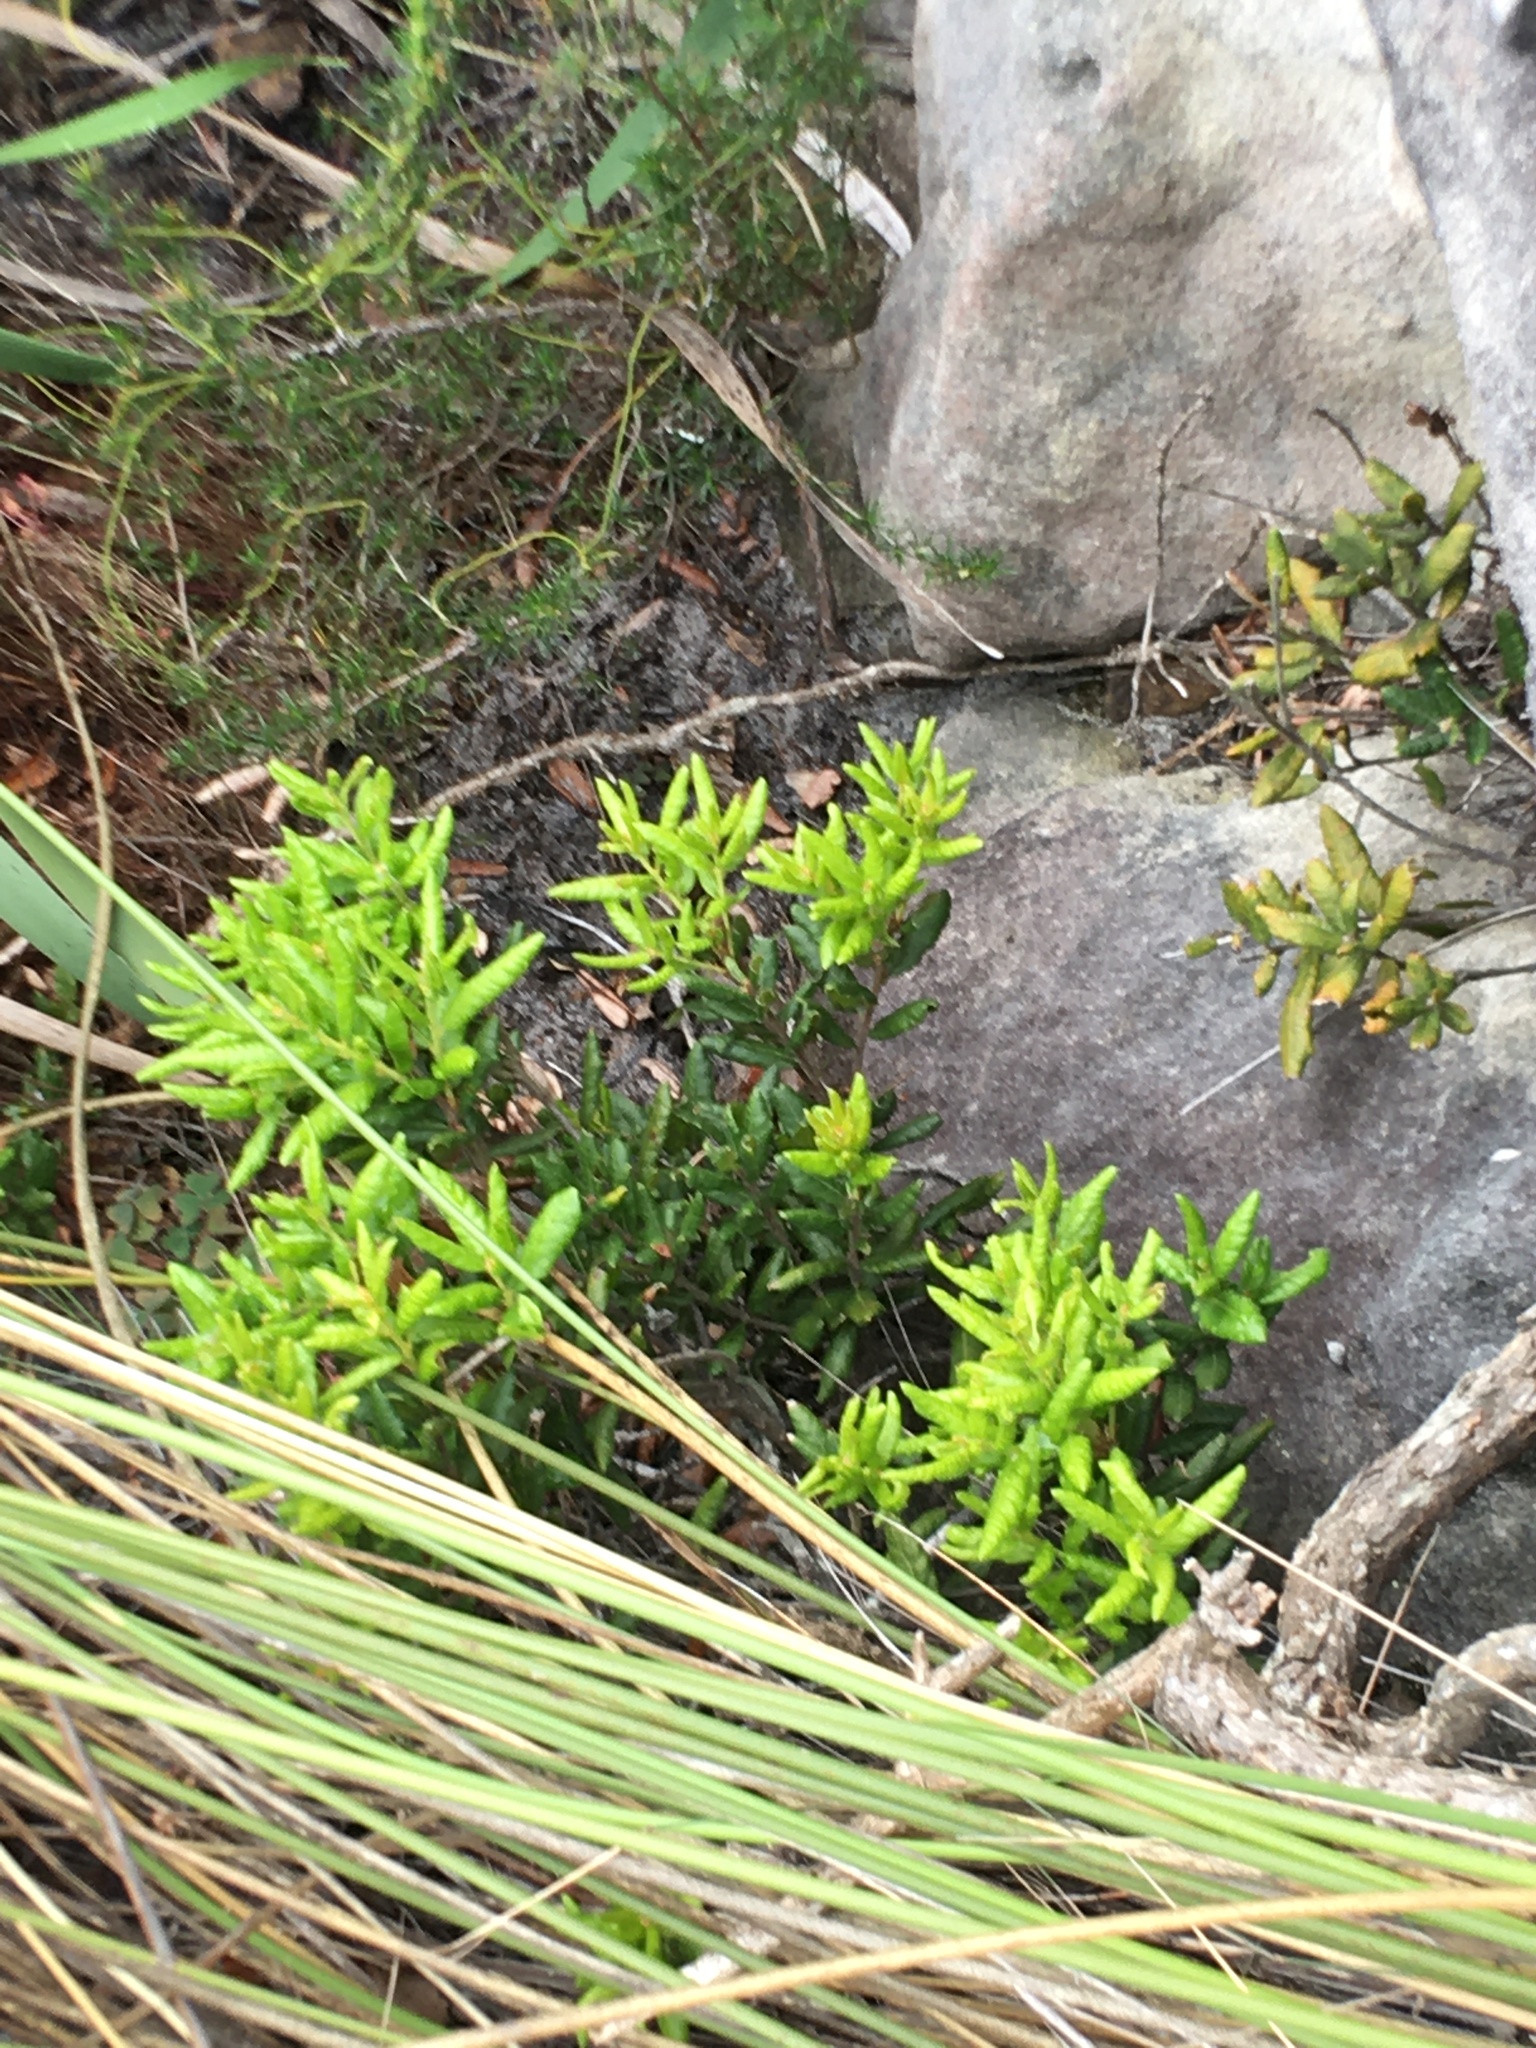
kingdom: Plantae
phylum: Tracheophyta
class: Magnoliopsida
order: Fagales
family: Myricaceae
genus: Morella
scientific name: Morella kraussiana
